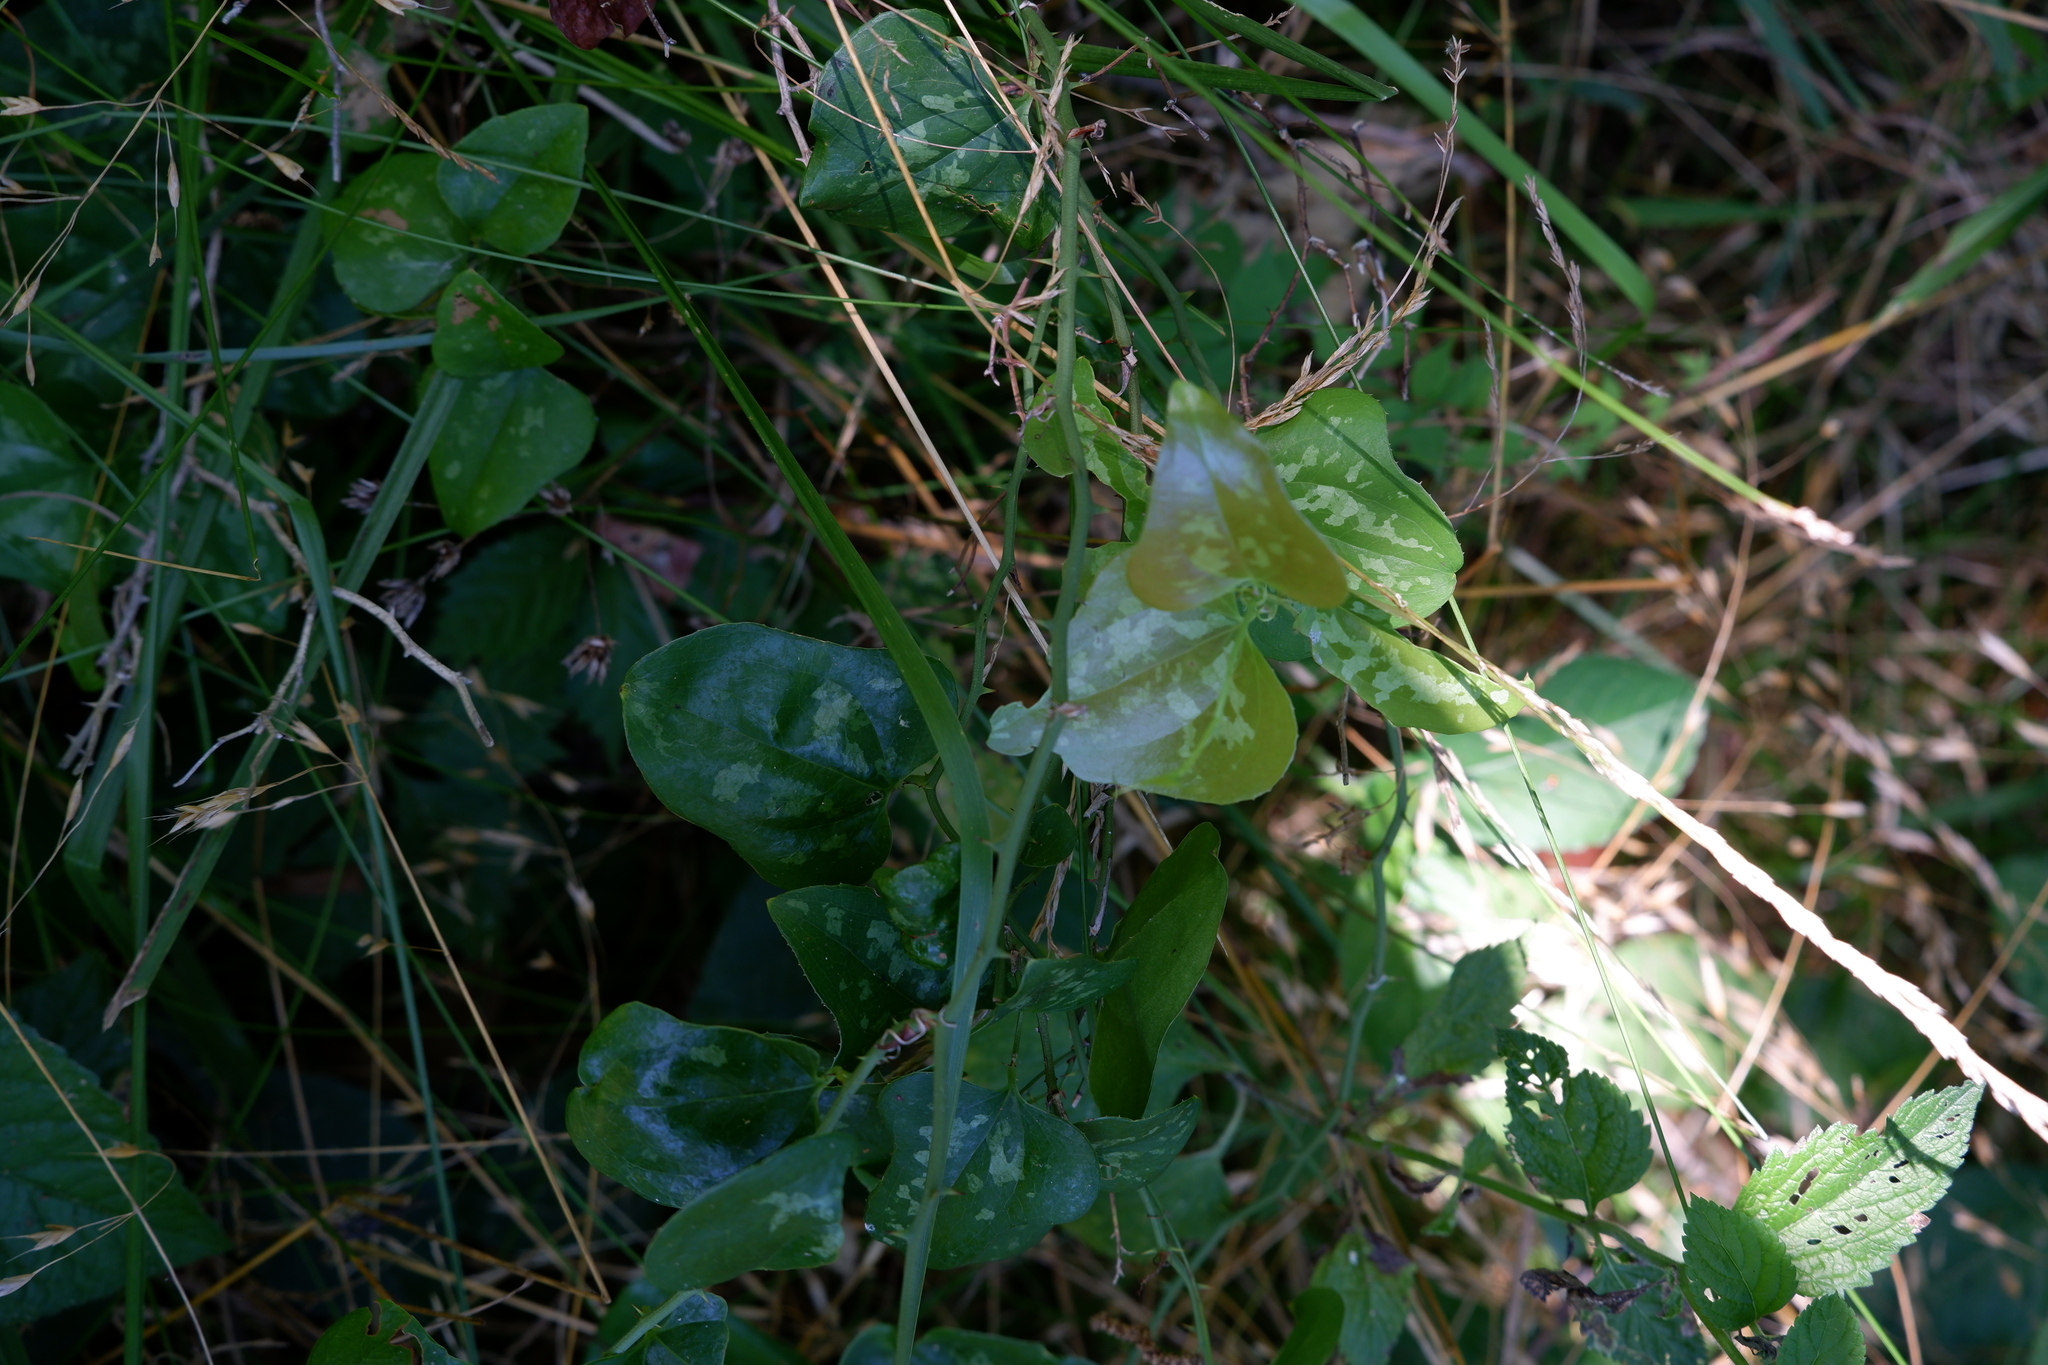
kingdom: Plantae
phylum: Tracheophyta
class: Liliopsida
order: Liliales
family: Smilacaceae
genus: Smilax
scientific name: Smilax bona-nox
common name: Catbrier
